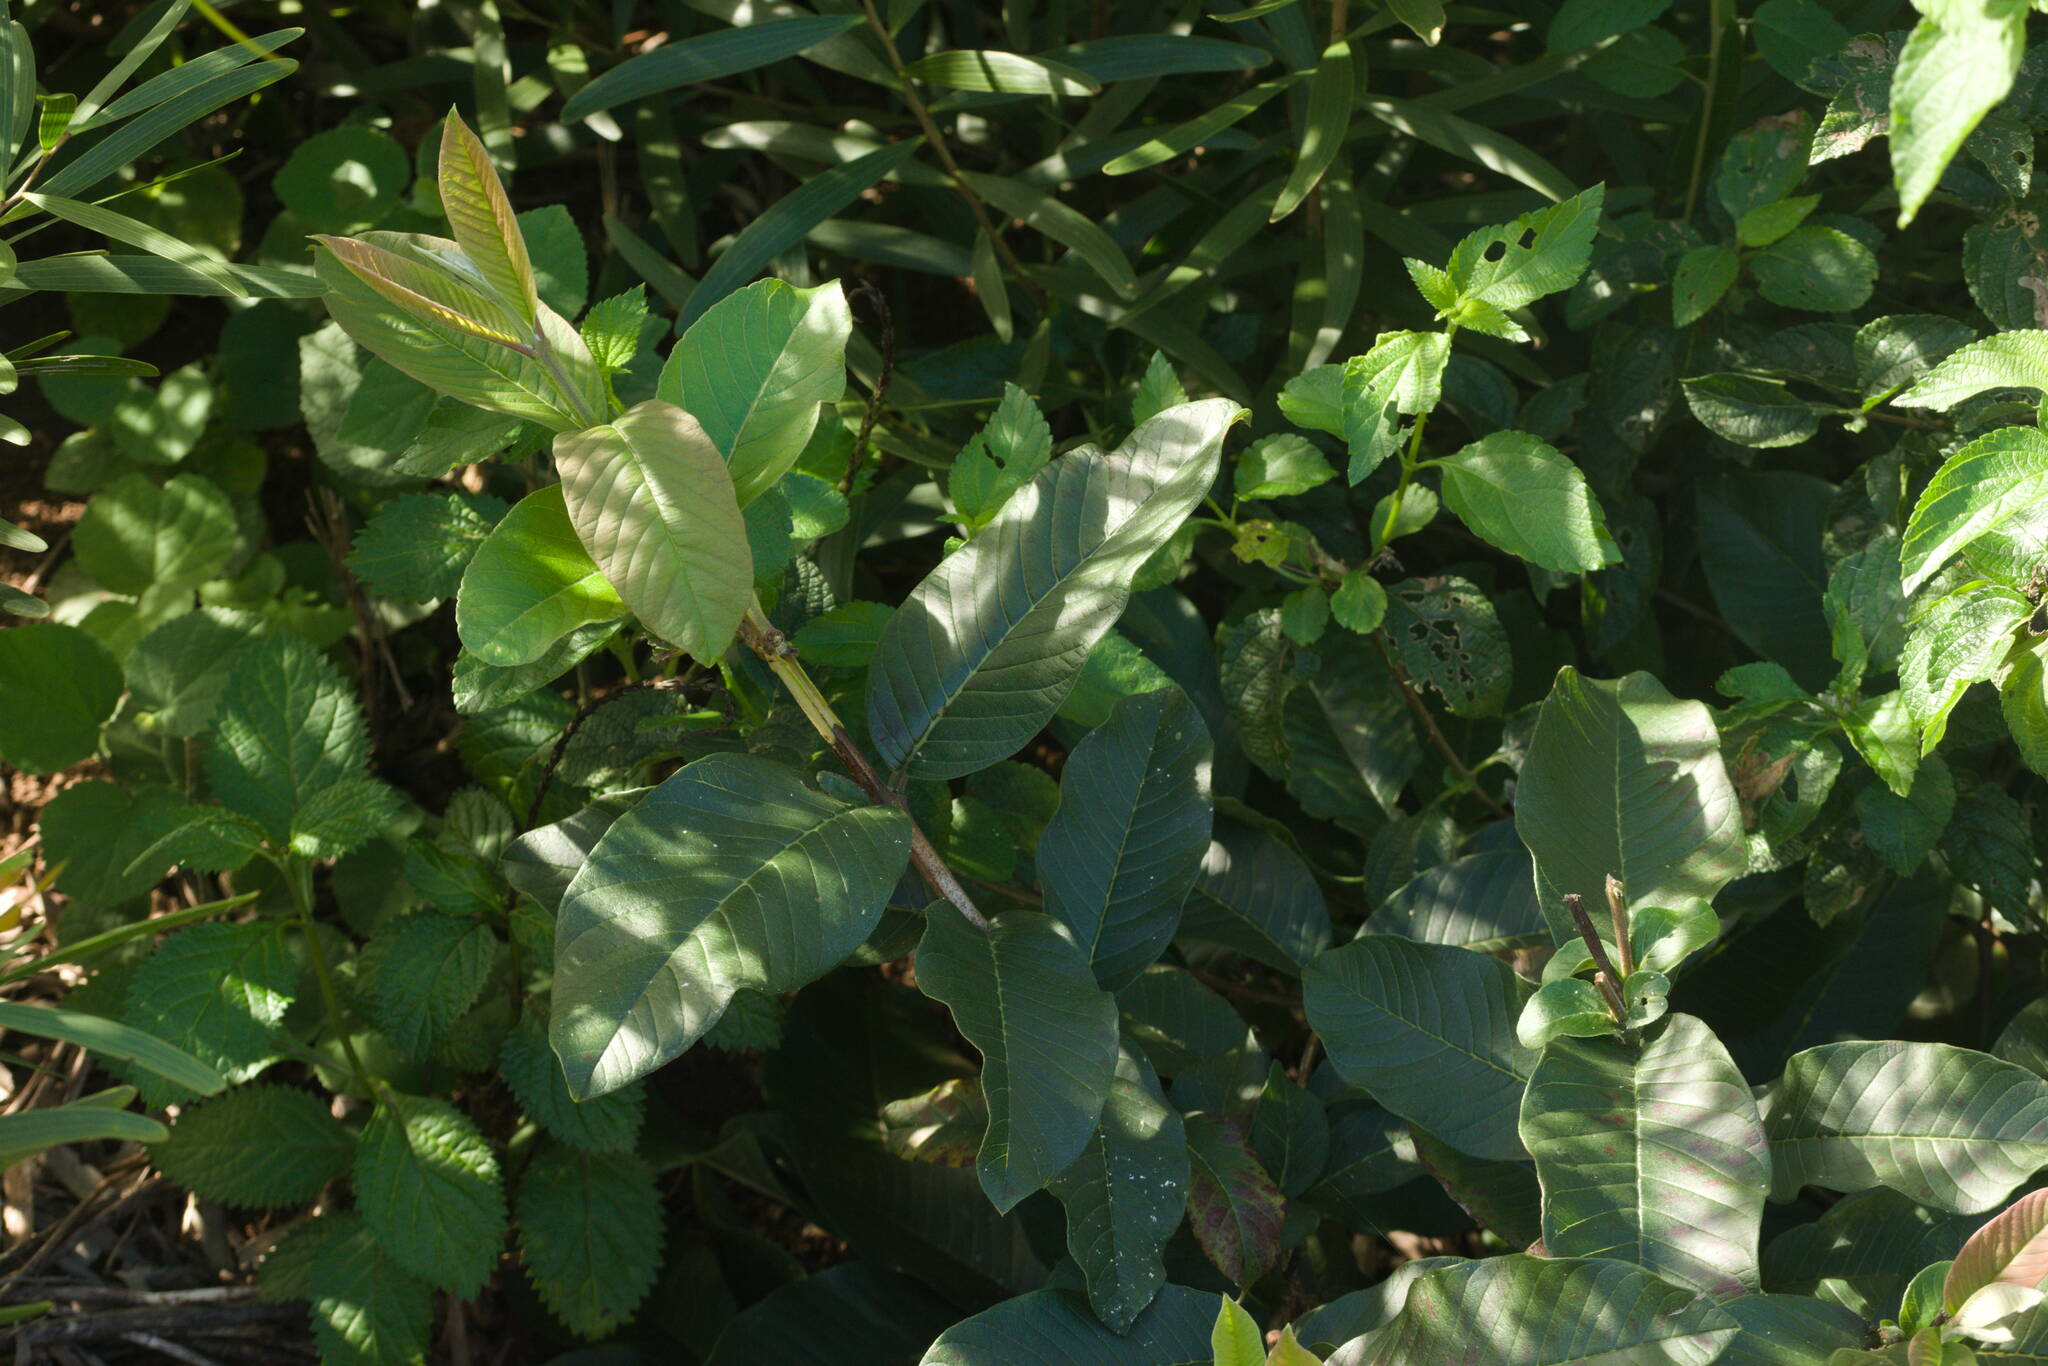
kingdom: Plantae
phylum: Tracheophyta
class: Magnoliopsida
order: Myrtales
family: Myrtaceae
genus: Psidium
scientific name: Psidium guajava
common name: Guava
